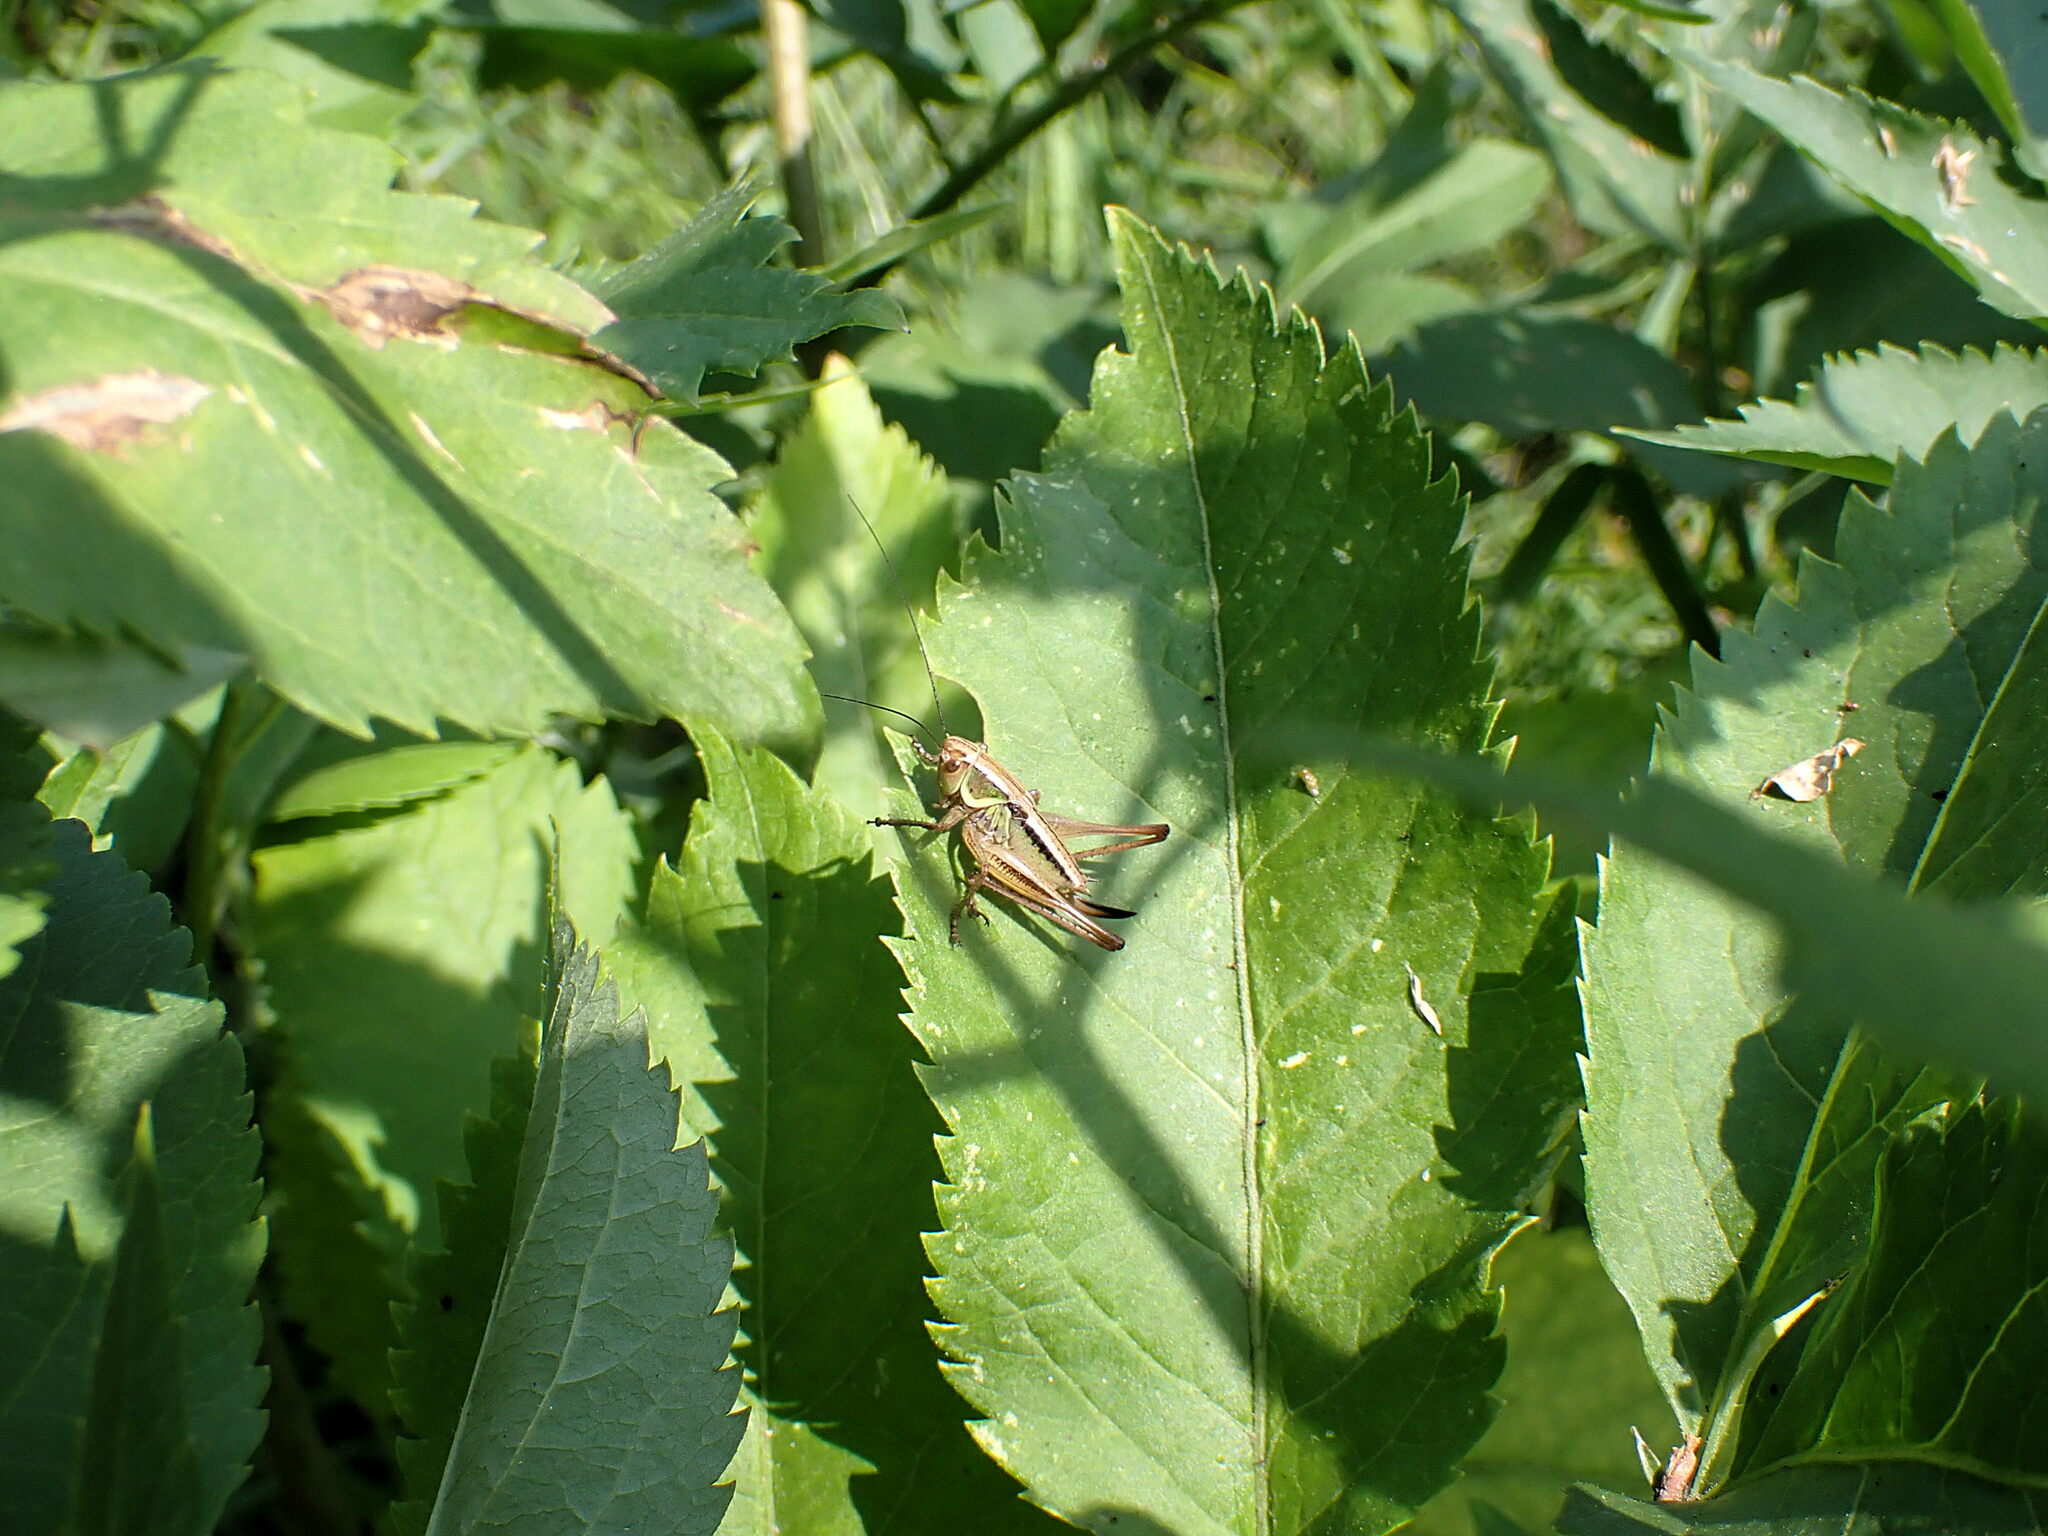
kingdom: Animalia
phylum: Arthropoda
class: Insecta
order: Orthoptera
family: Tettigoniidae
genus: Roeseliana
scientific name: Roeseliana roeselii
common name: Roesel's bush cricket
